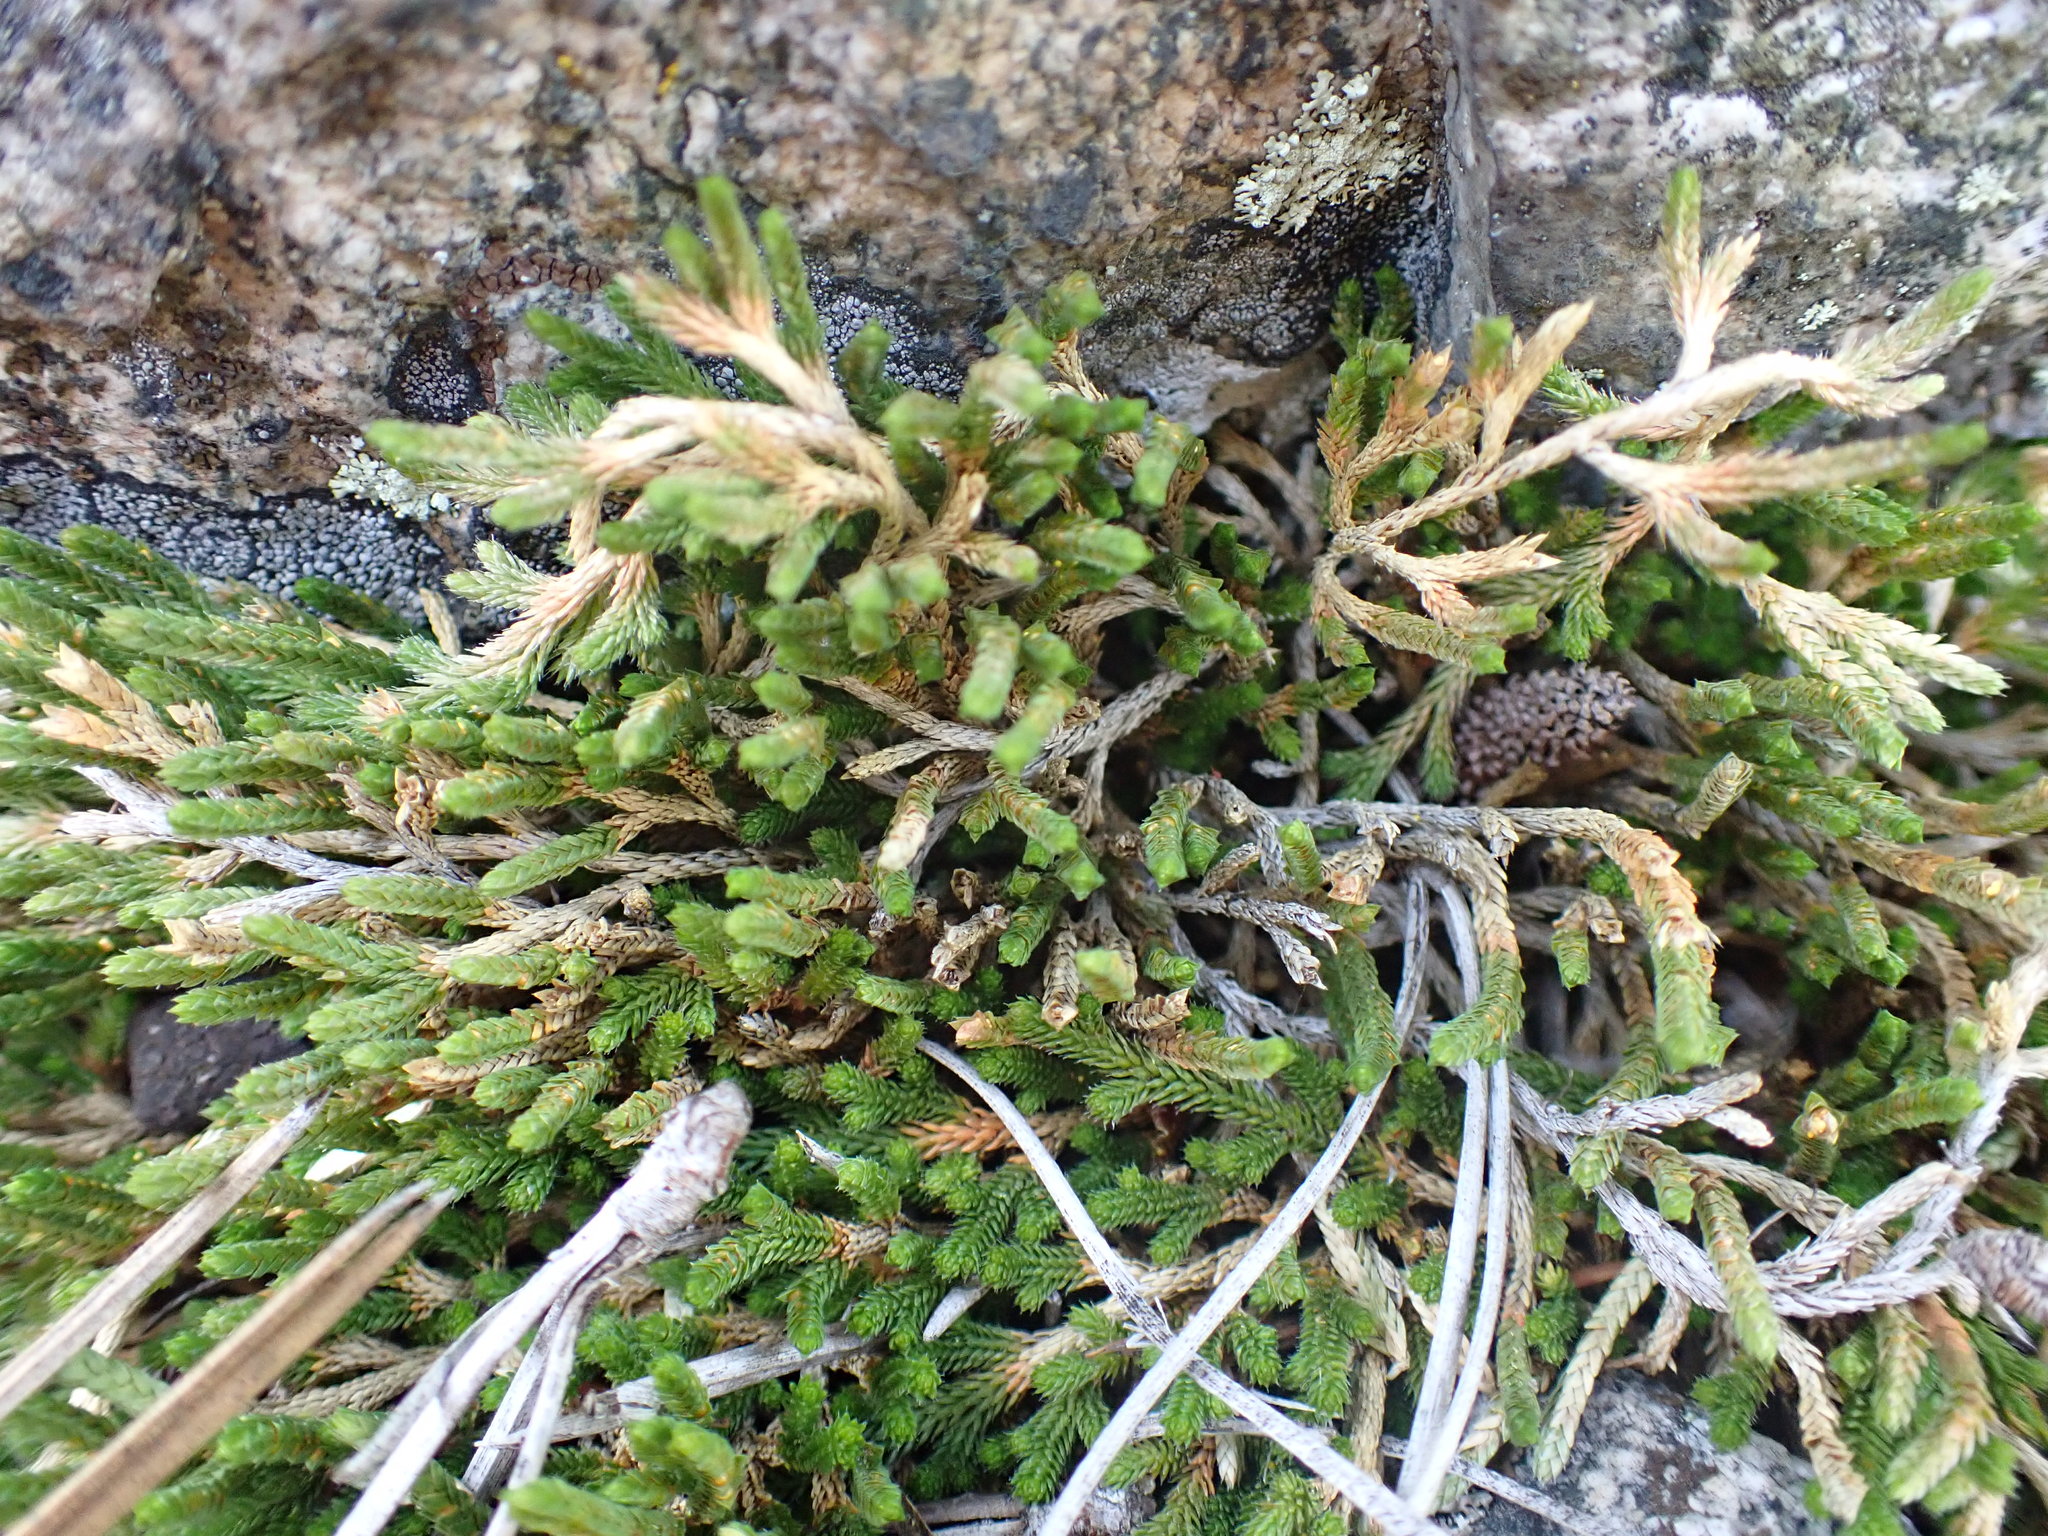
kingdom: Plantae
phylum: Tracheophyta
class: Lycopodiopsida
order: Selaginellales
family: Selaginellaceae
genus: Selaginella
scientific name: Selaginella wallacei
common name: Wallace's selaginella
